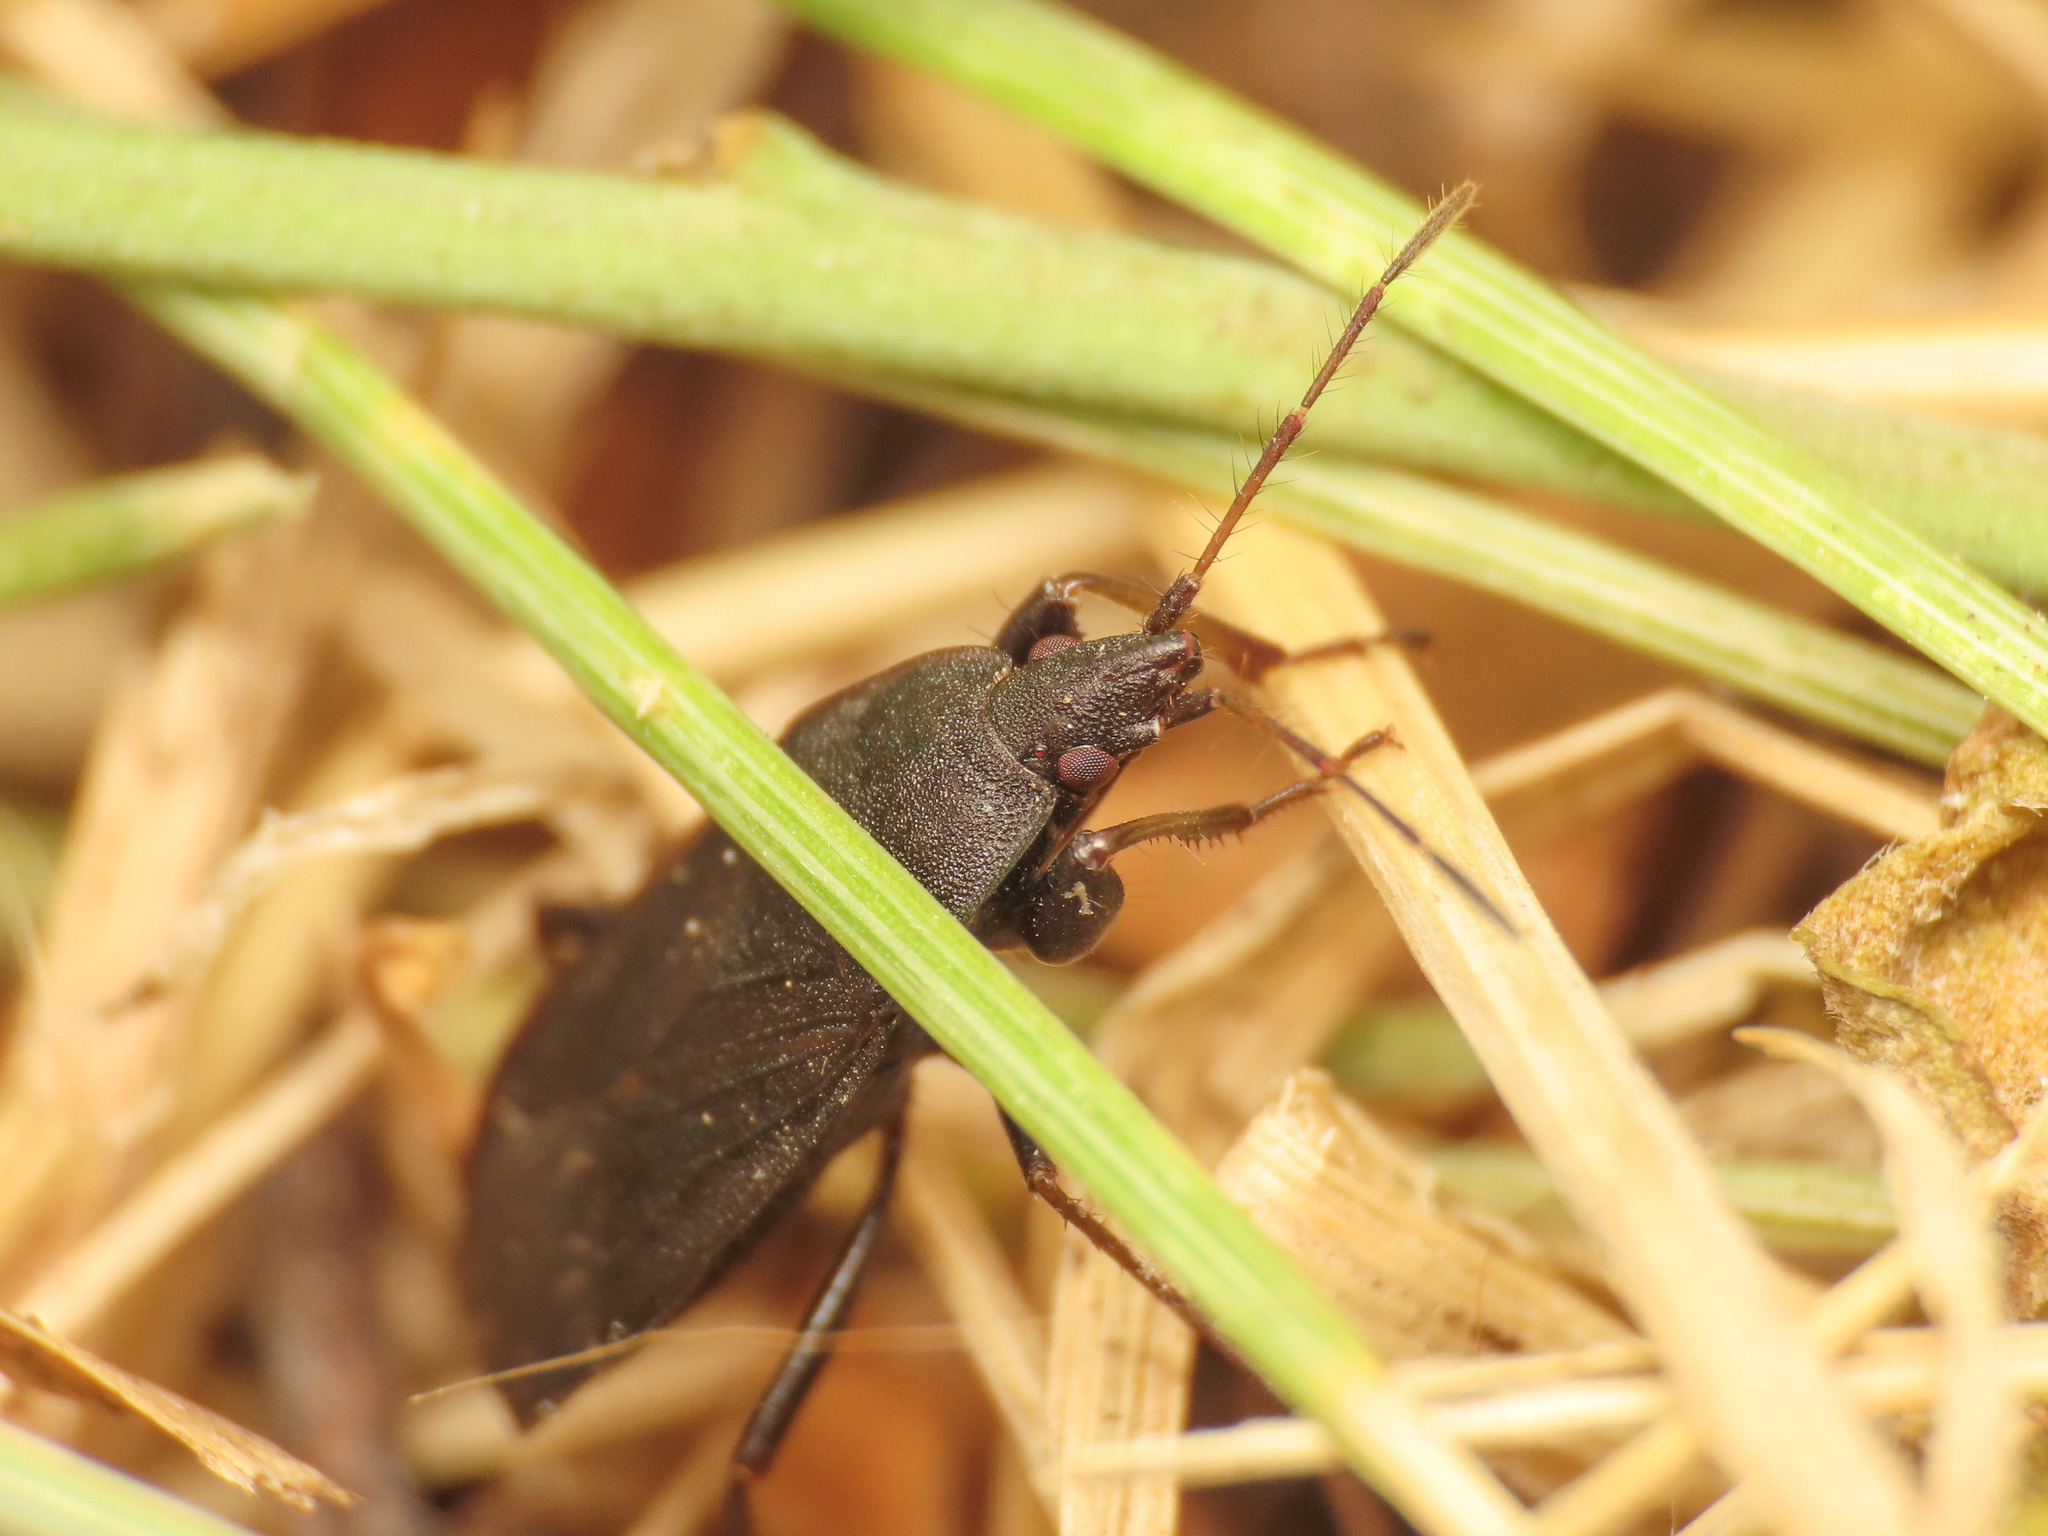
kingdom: Animalia
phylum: Arthropoda
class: Insecta
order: Hemiptera
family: Rhyparochromidae
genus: Neurocladus
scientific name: Neurocladus brachiidens
